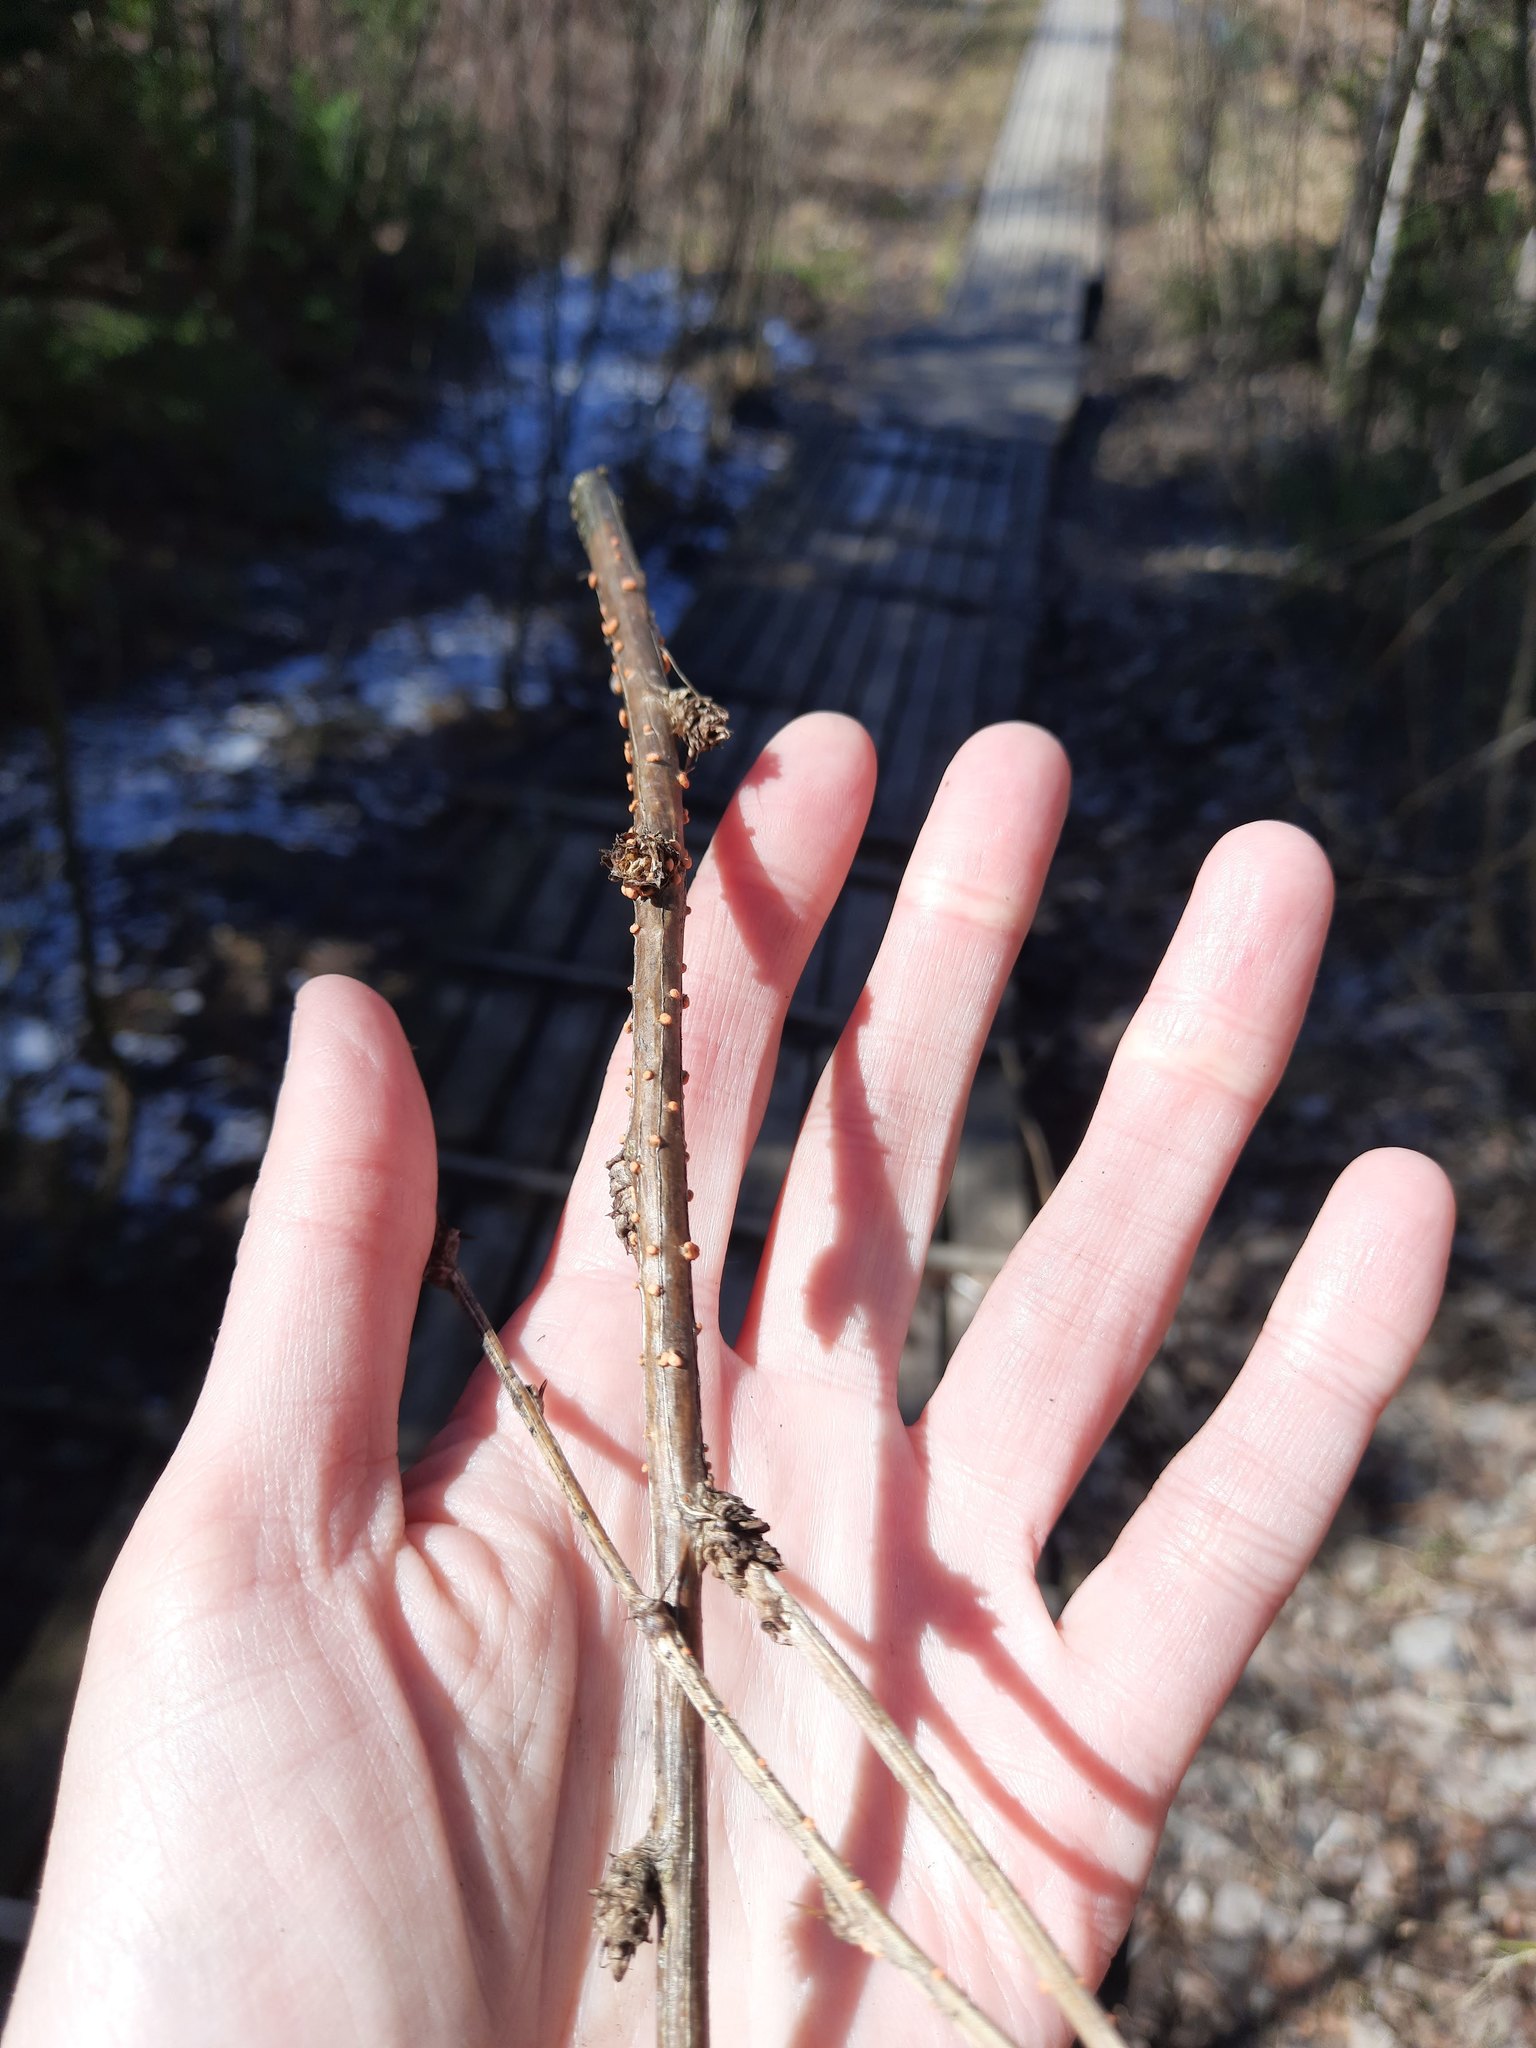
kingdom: Fungi
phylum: Ascomycota
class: Sordariomycetes
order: Hypocreales
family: Nectriaceae
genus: Nectria
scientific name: Nectria cinnabarina
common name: Coral spot
